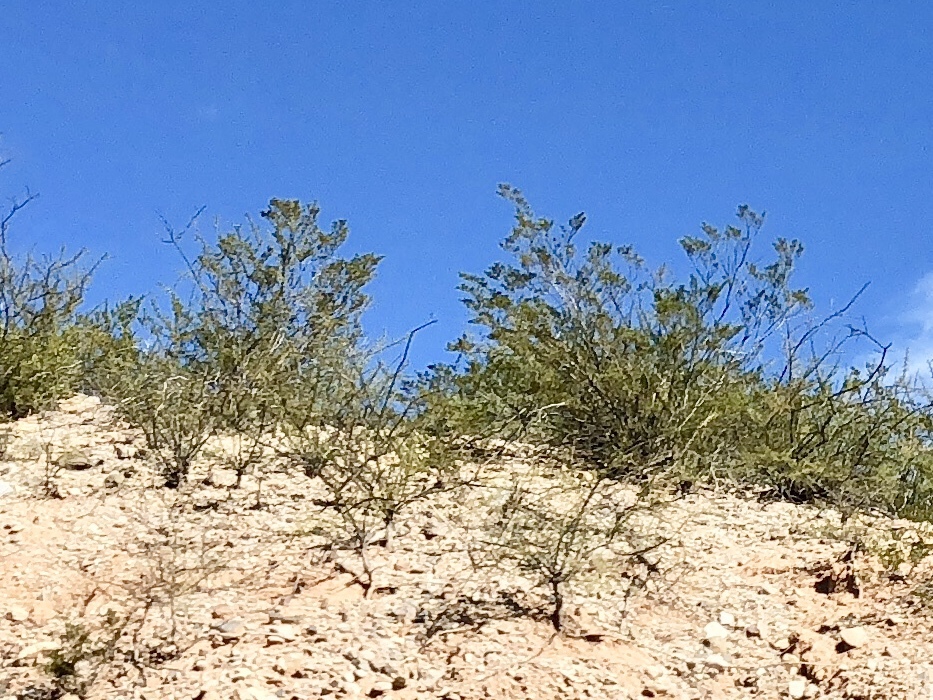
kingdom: Plantae
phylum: Tracheophyta
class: Magnoliopsida
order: Zygophyllales
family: Zygophyllaceae
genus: Larrea
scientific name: Larrea tridentata
